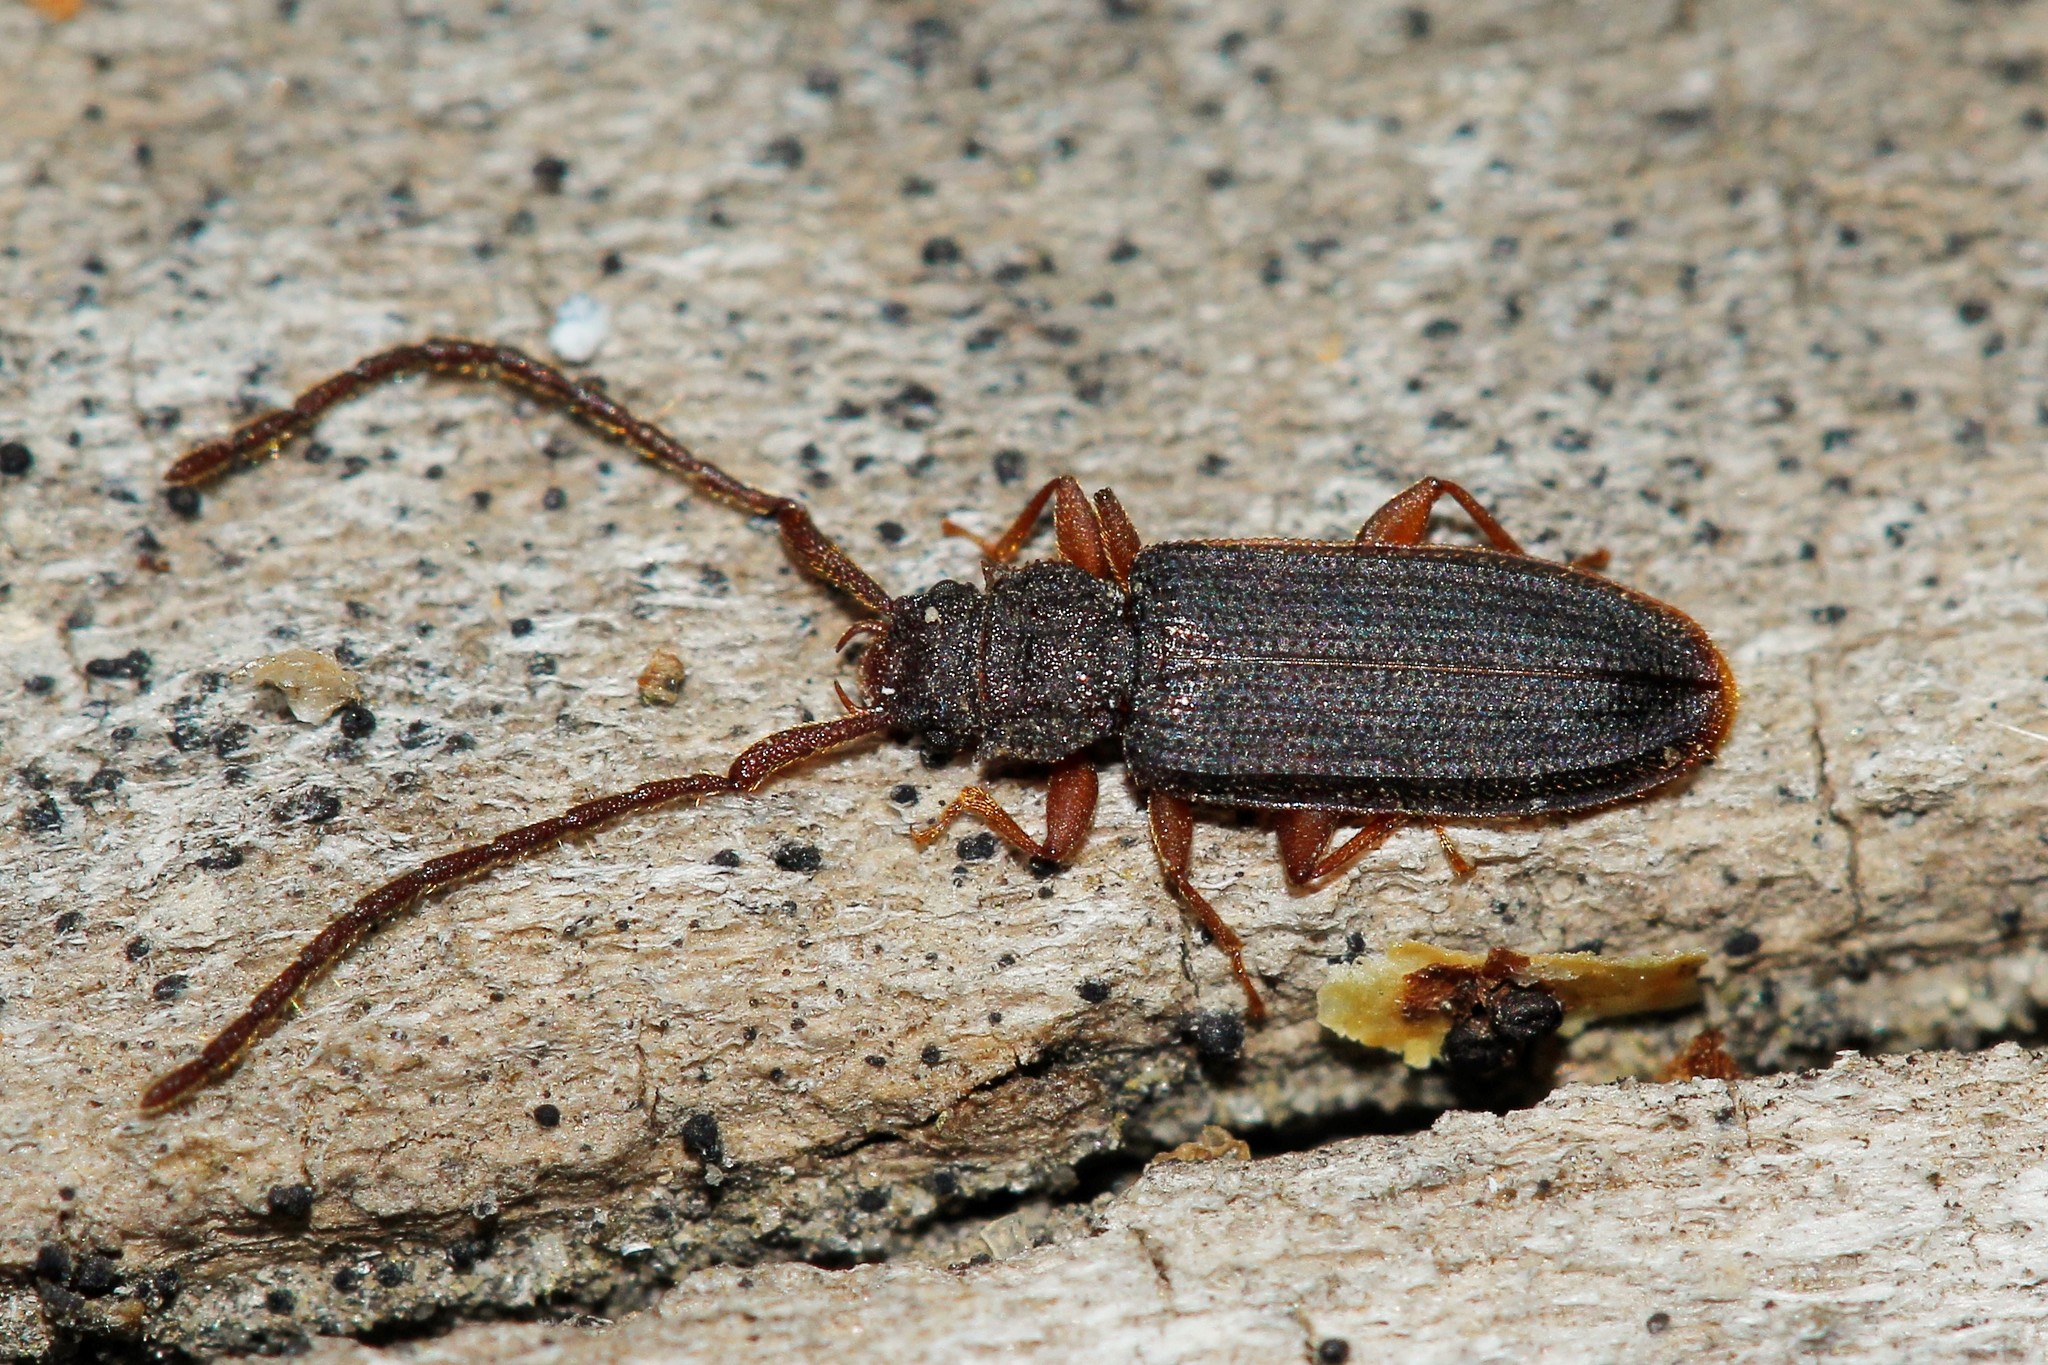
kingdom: Animalia
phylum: Arthropoda
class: Insecta
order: Coleoptera
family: Silvanidae
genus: Uleiota
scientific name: Uleiota planatus
